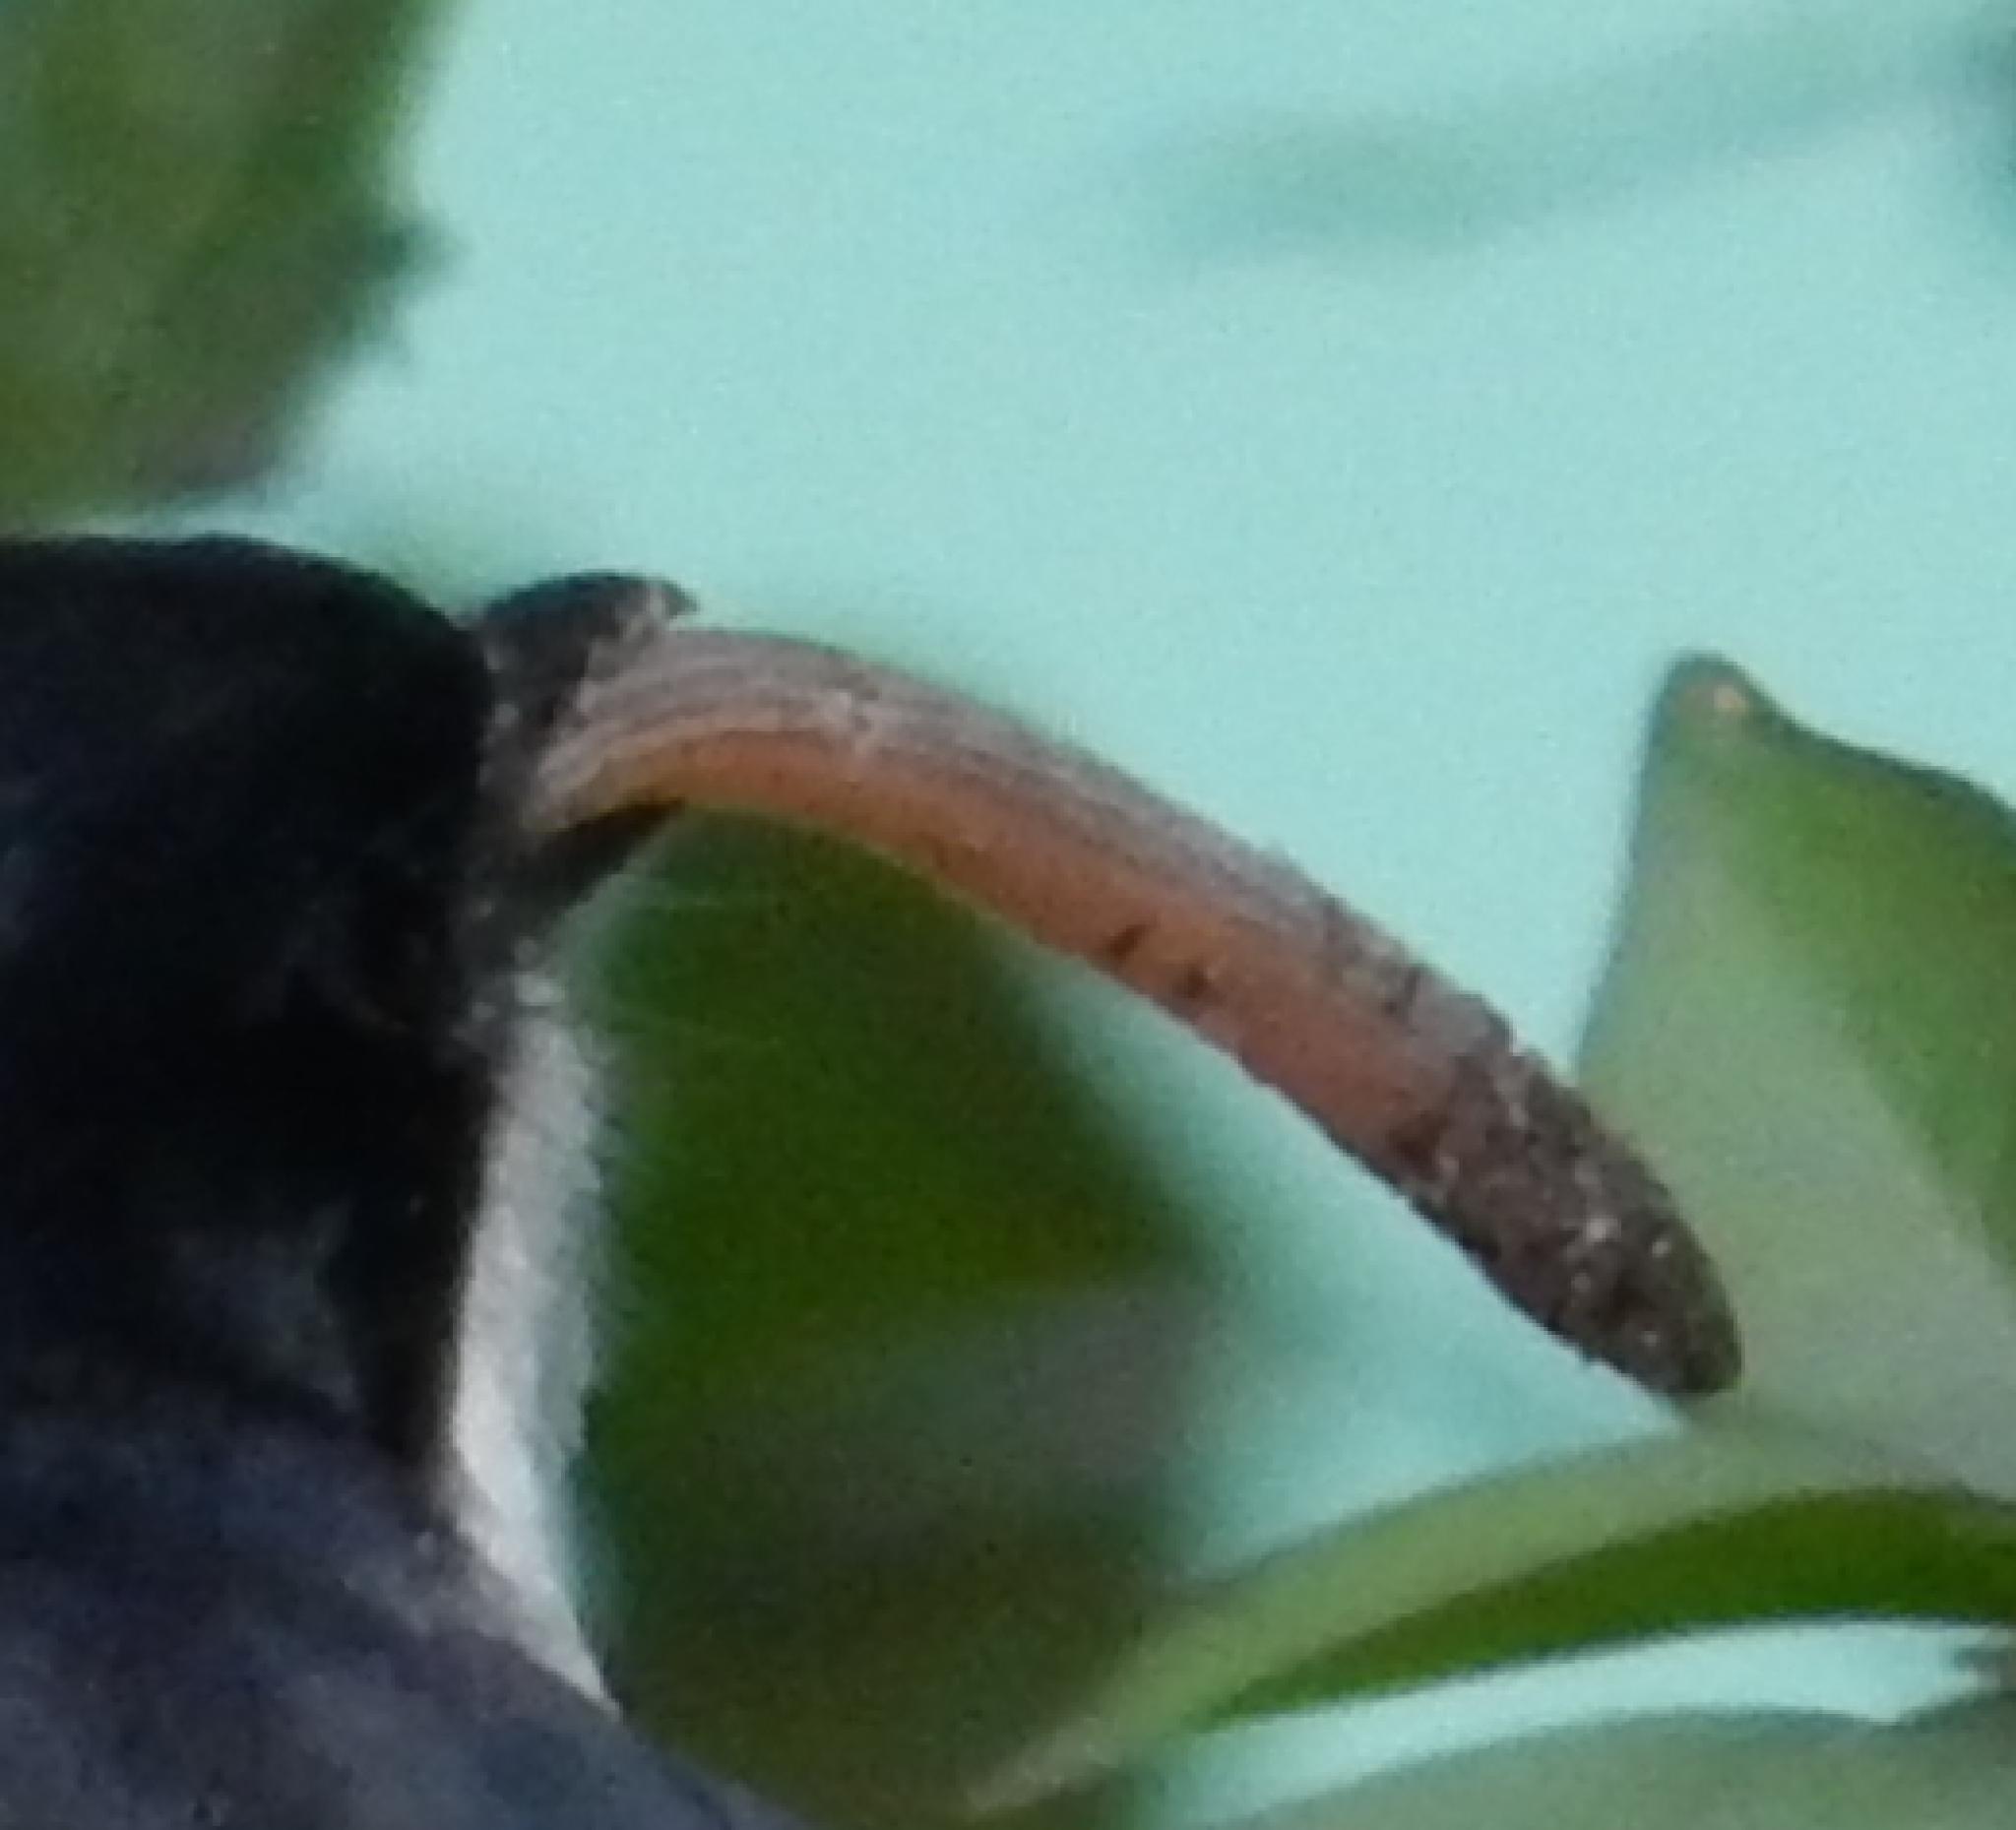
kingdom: Animalia
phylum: Chordata
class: Squamata
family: Scincidae
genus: Acontias
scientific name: Acontias orientalis
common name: Eastern cape legless skink
